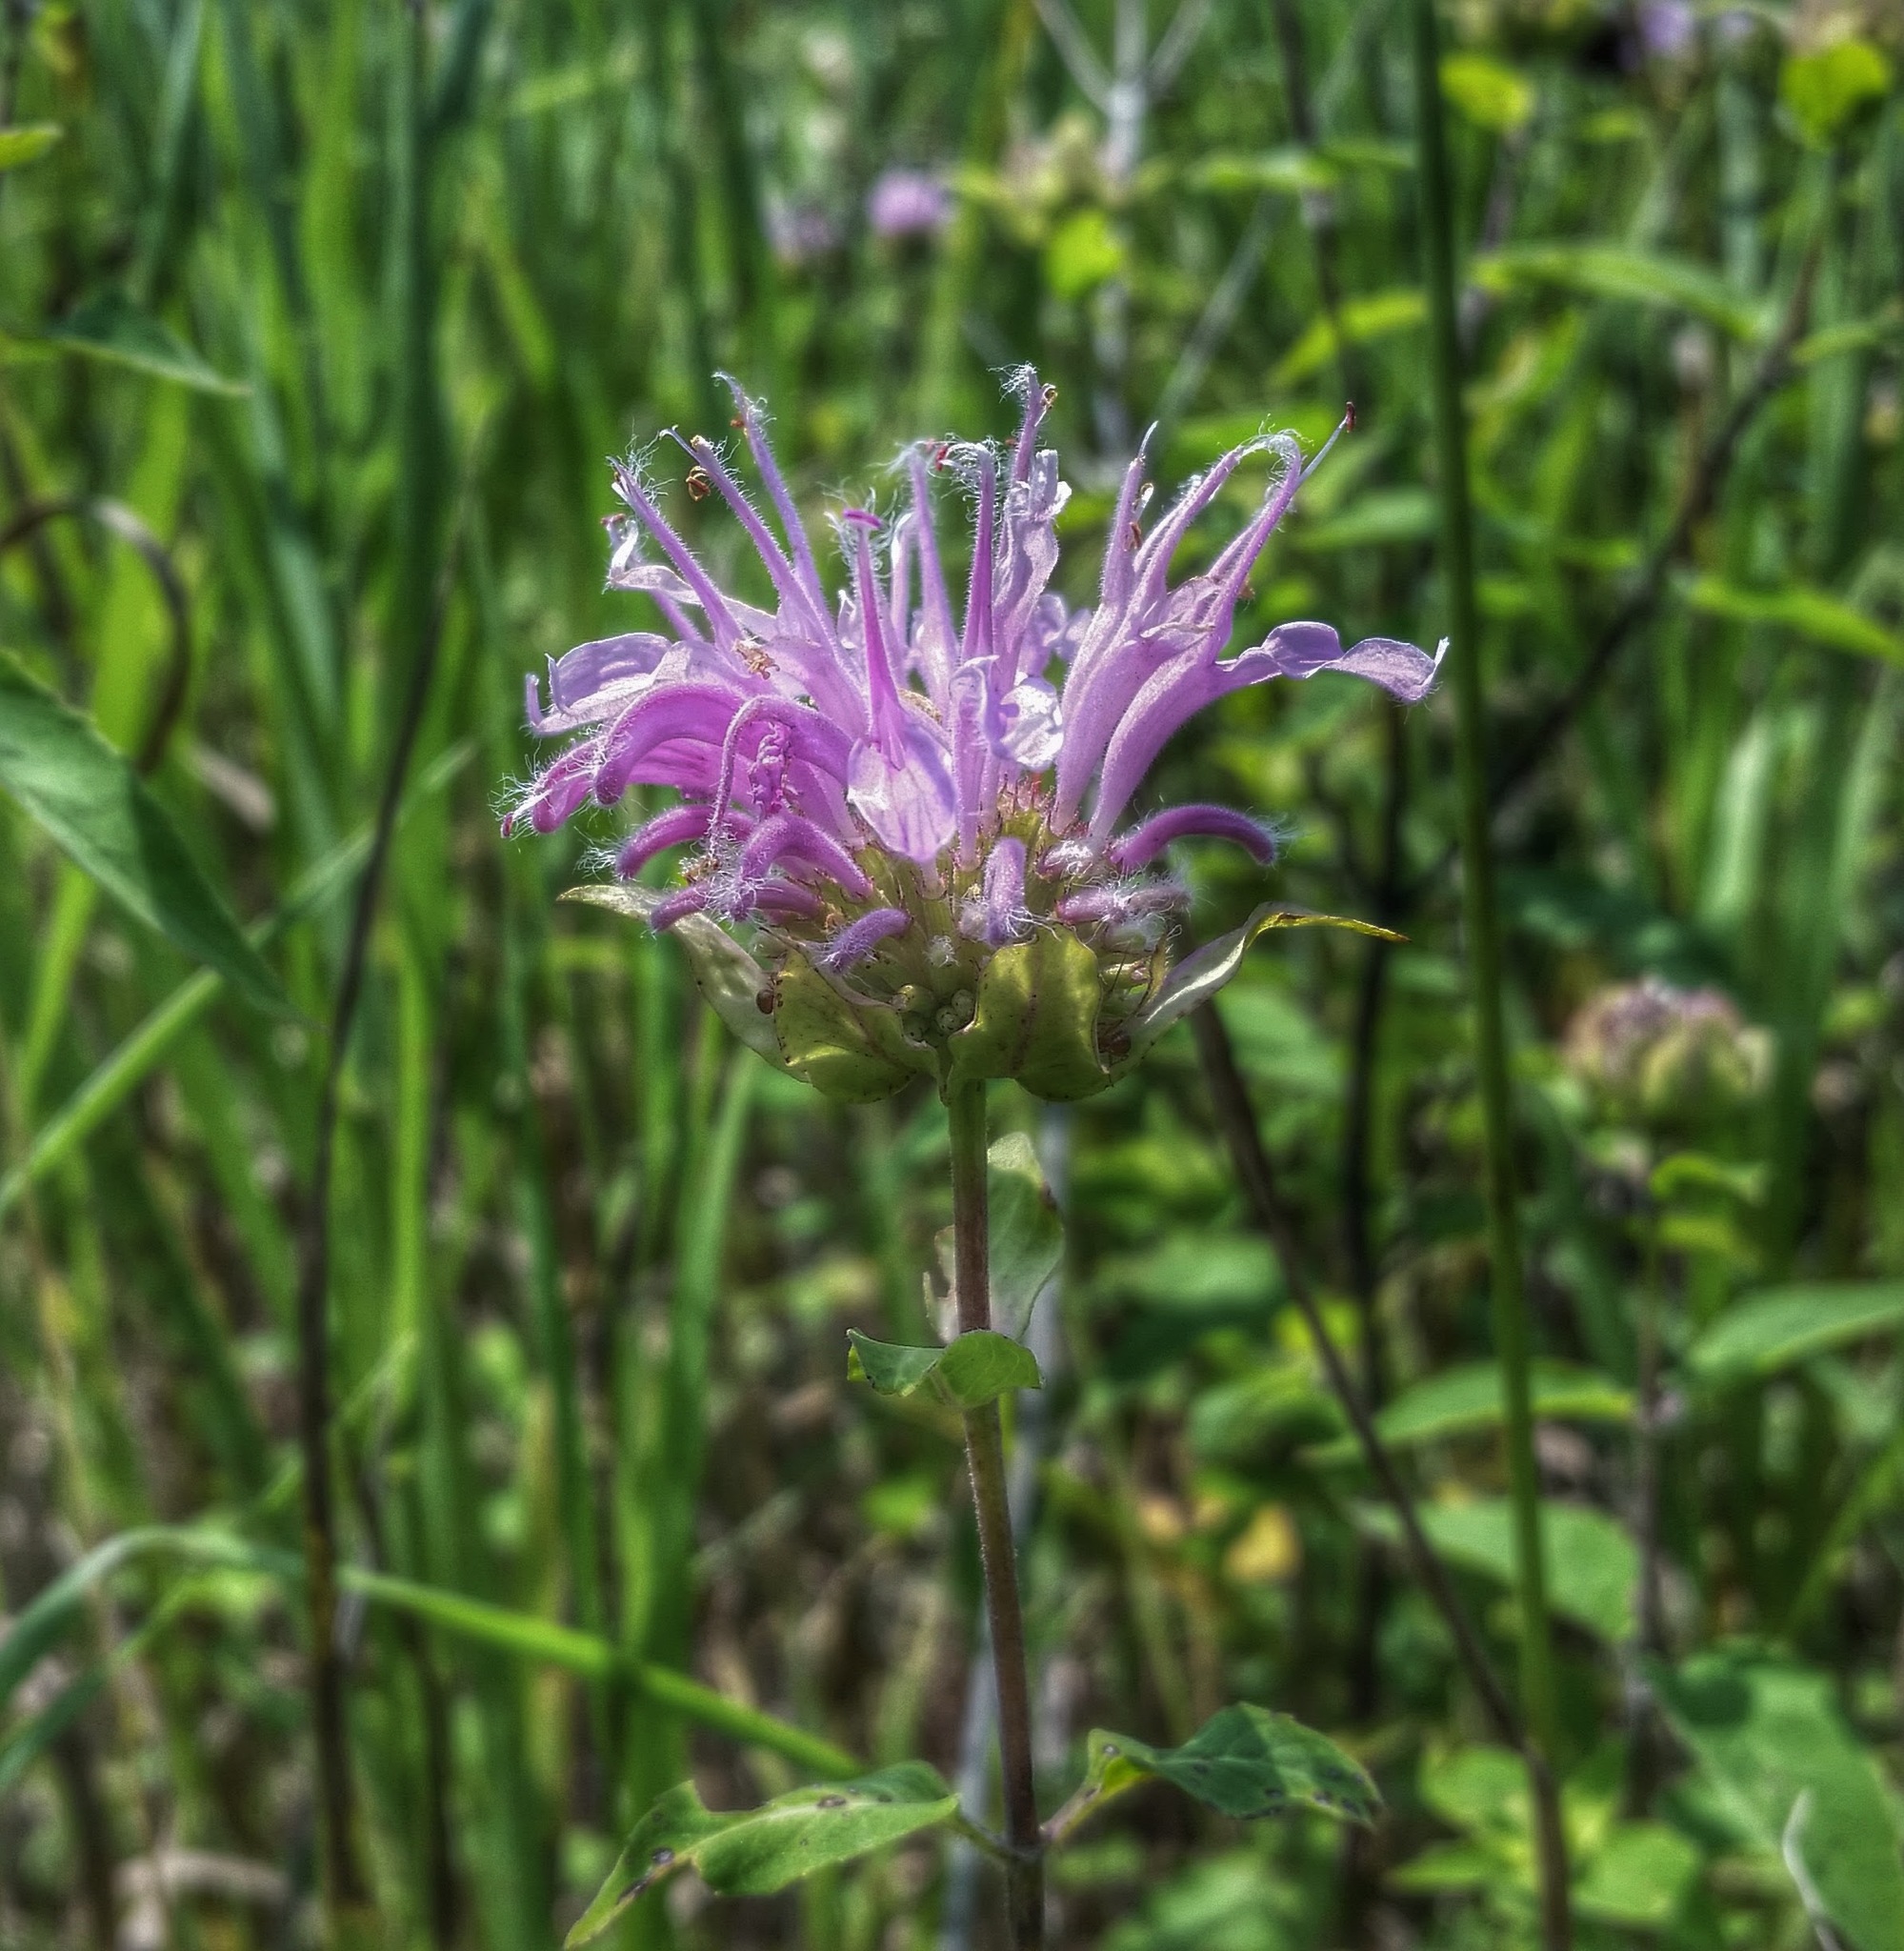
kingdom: Plantae
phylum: Tracheophyta
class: Magnoliopsida
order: Lamiales
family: Lamiaceae
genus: Monarda
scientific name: Monarda fistulosa
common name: Purple beebalm
